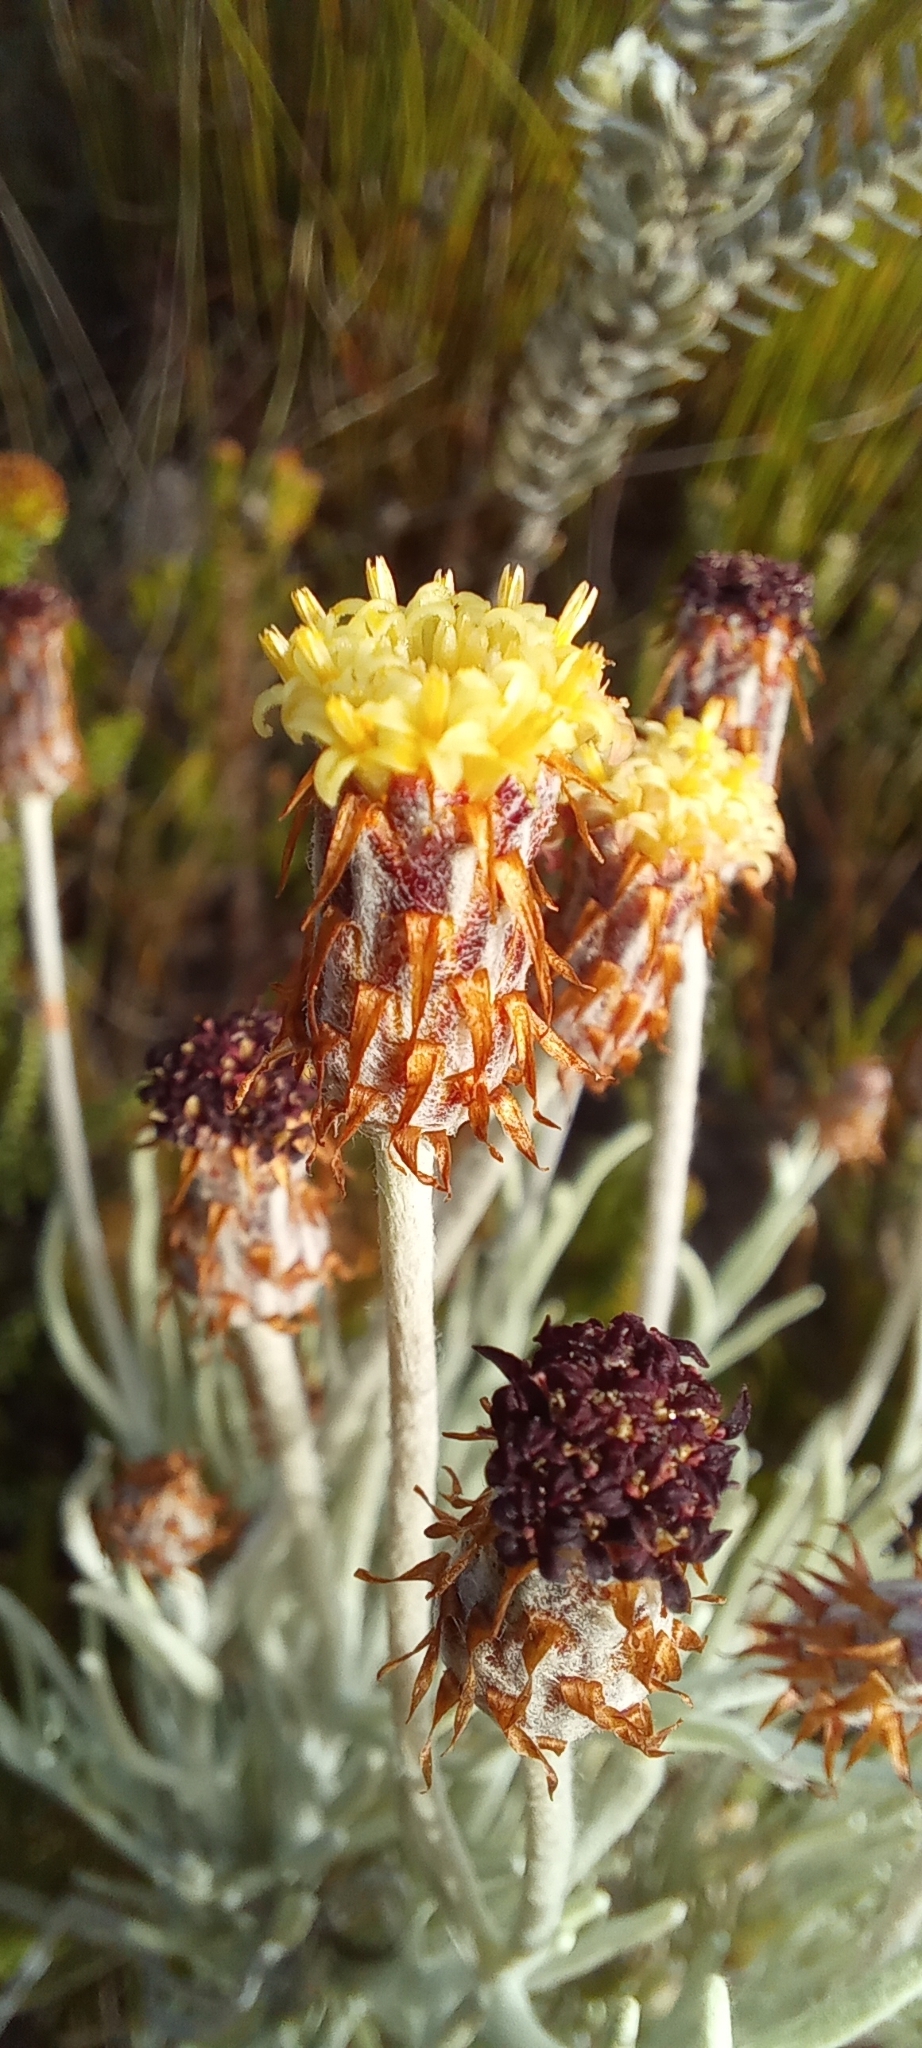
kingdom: Plantae
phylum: Tracheophyta
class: Magnoliopsida
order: Asterales
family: Asteraceae
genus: Syncarpha
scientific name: Syncarpha gnaphaloides
